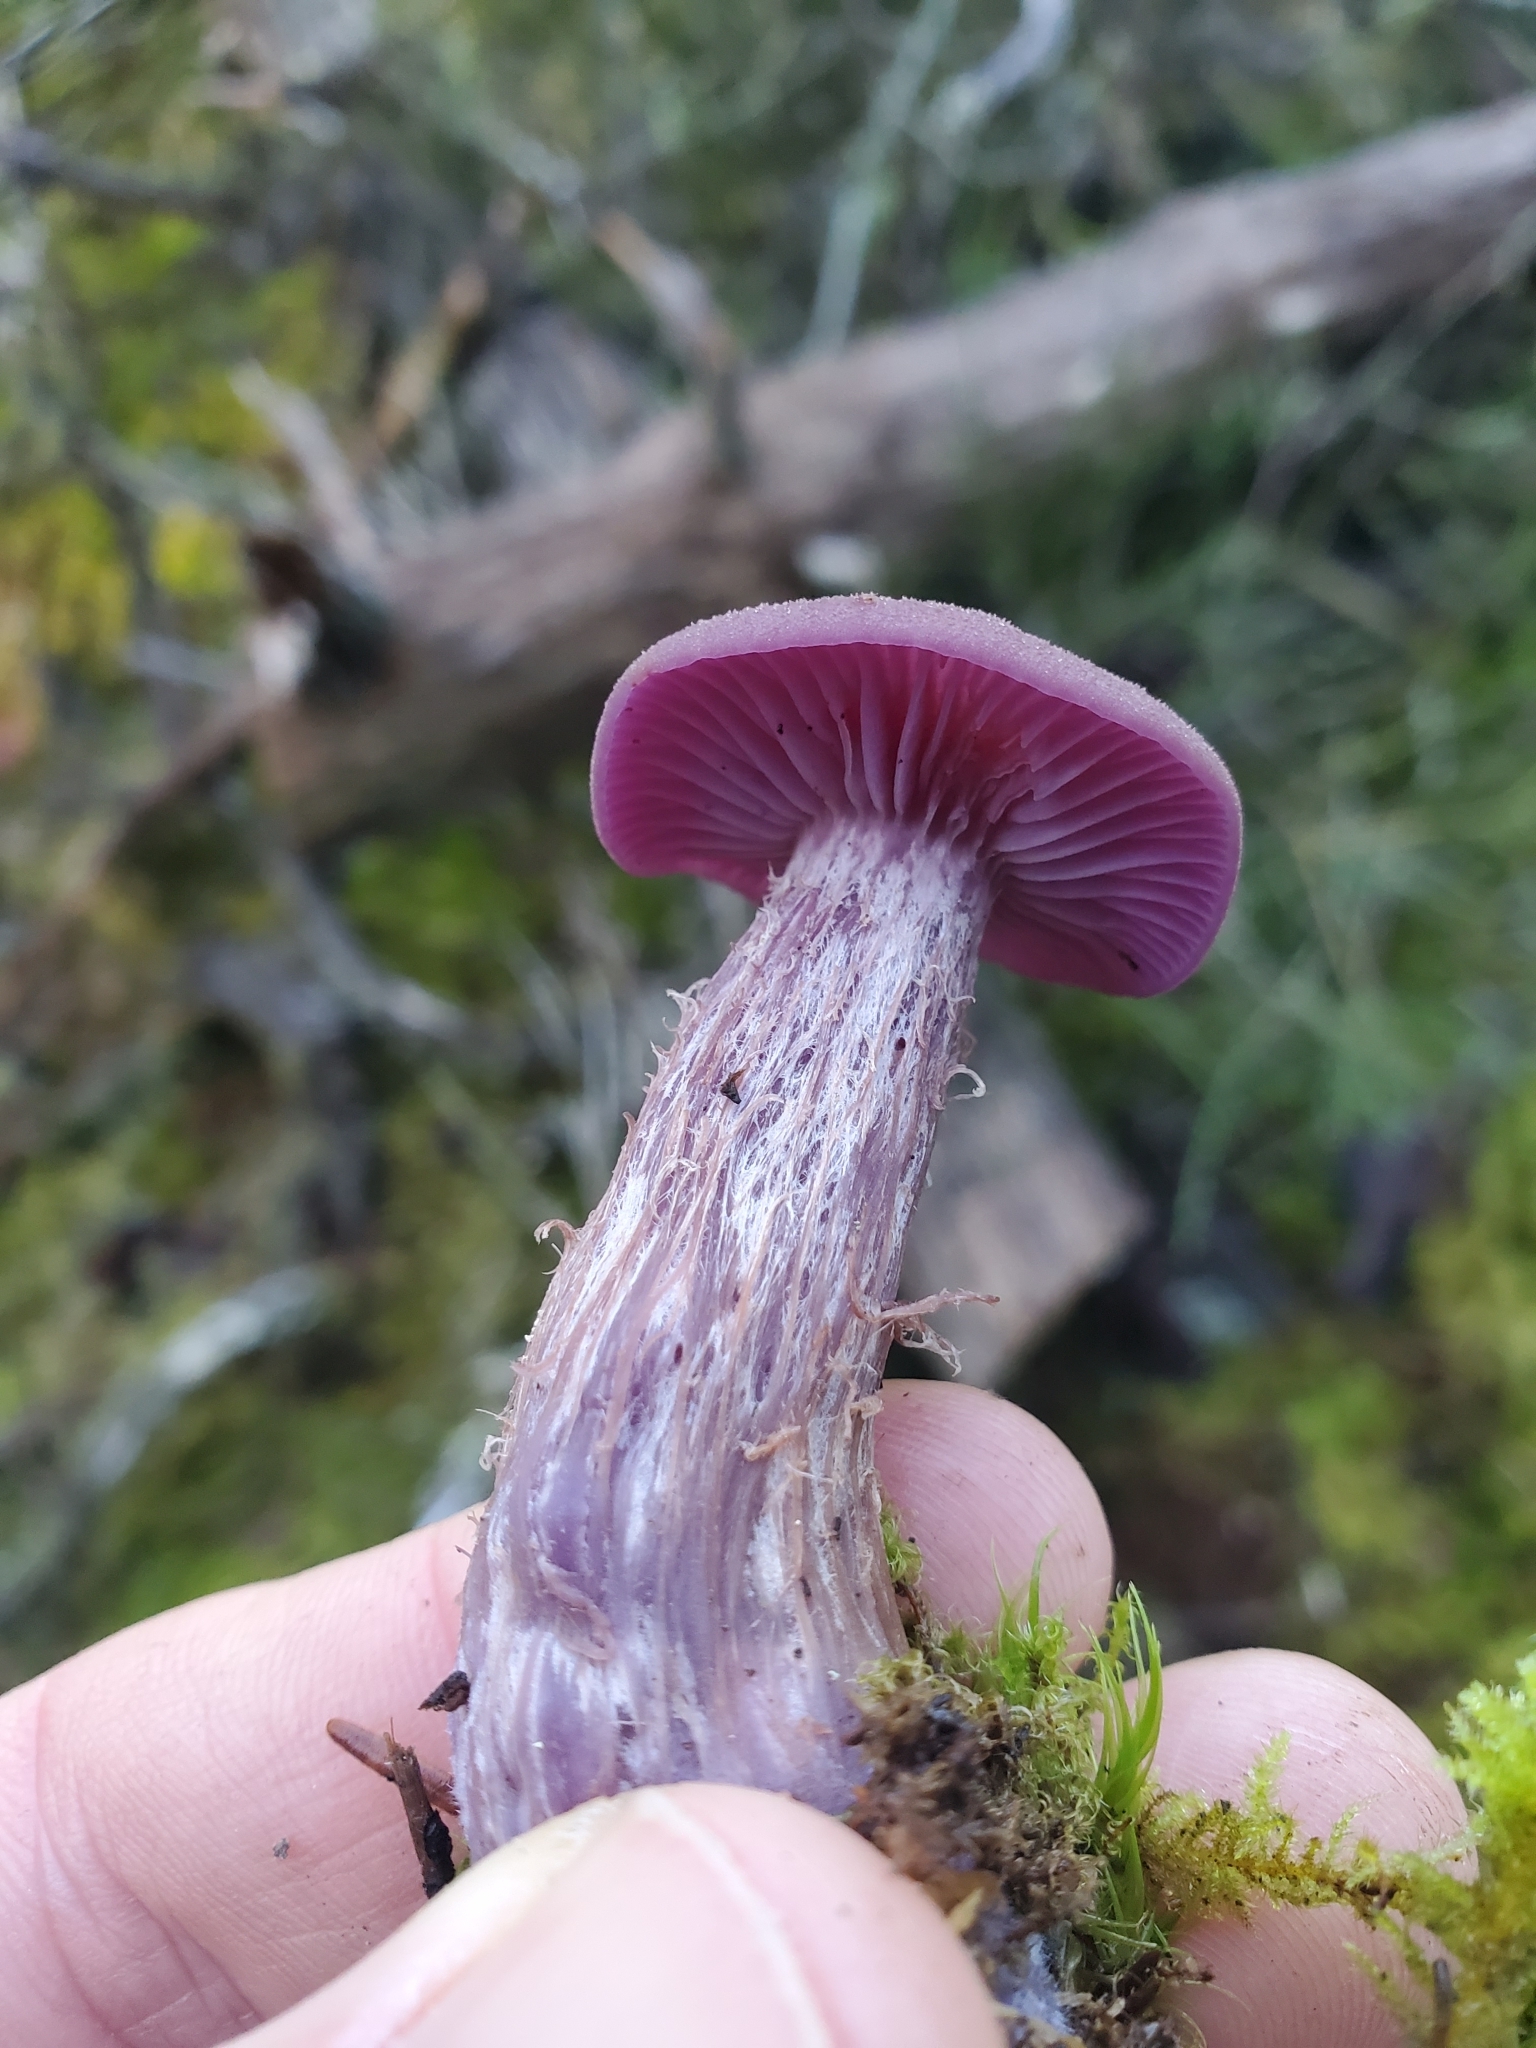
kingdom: Fungi
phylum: Basidiomycota
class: Agaricomycetes
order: Agaricales
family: Hydnangiaceae
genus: Laccaria
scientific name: Laccaria amethysteo-occidentalis
